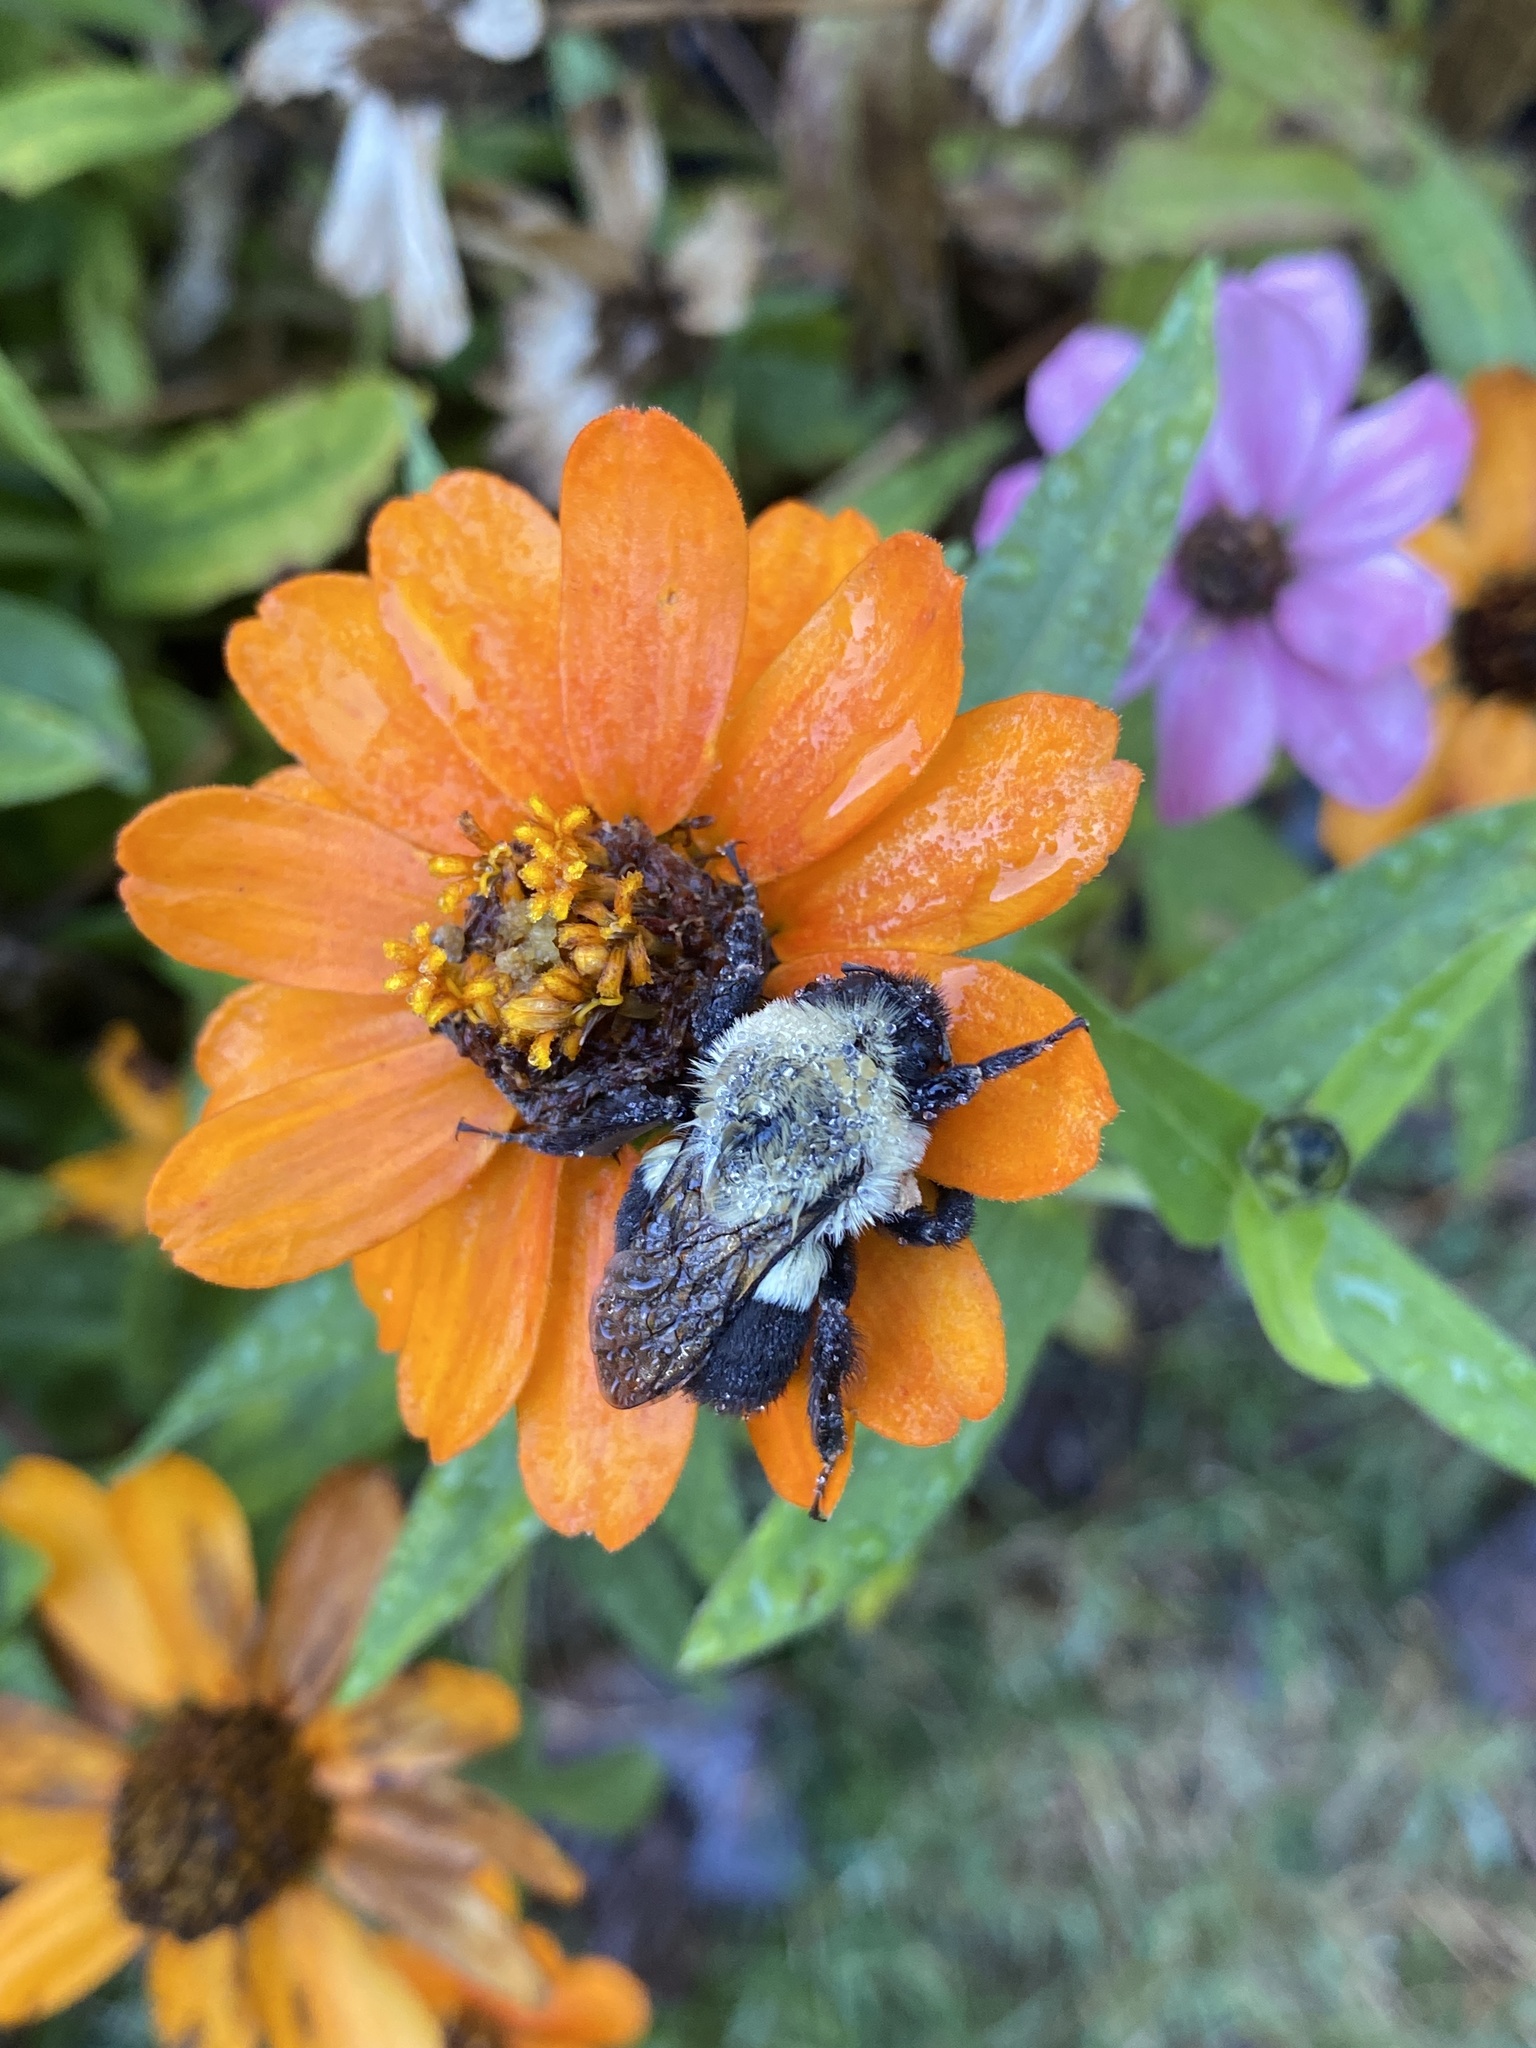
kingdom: Animalia
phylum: Arthropoda
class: Insecta
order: Hymenoptera
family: Apidae
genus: Bombus
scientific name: Bombus impatiens
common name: Common eastern bumble bee
